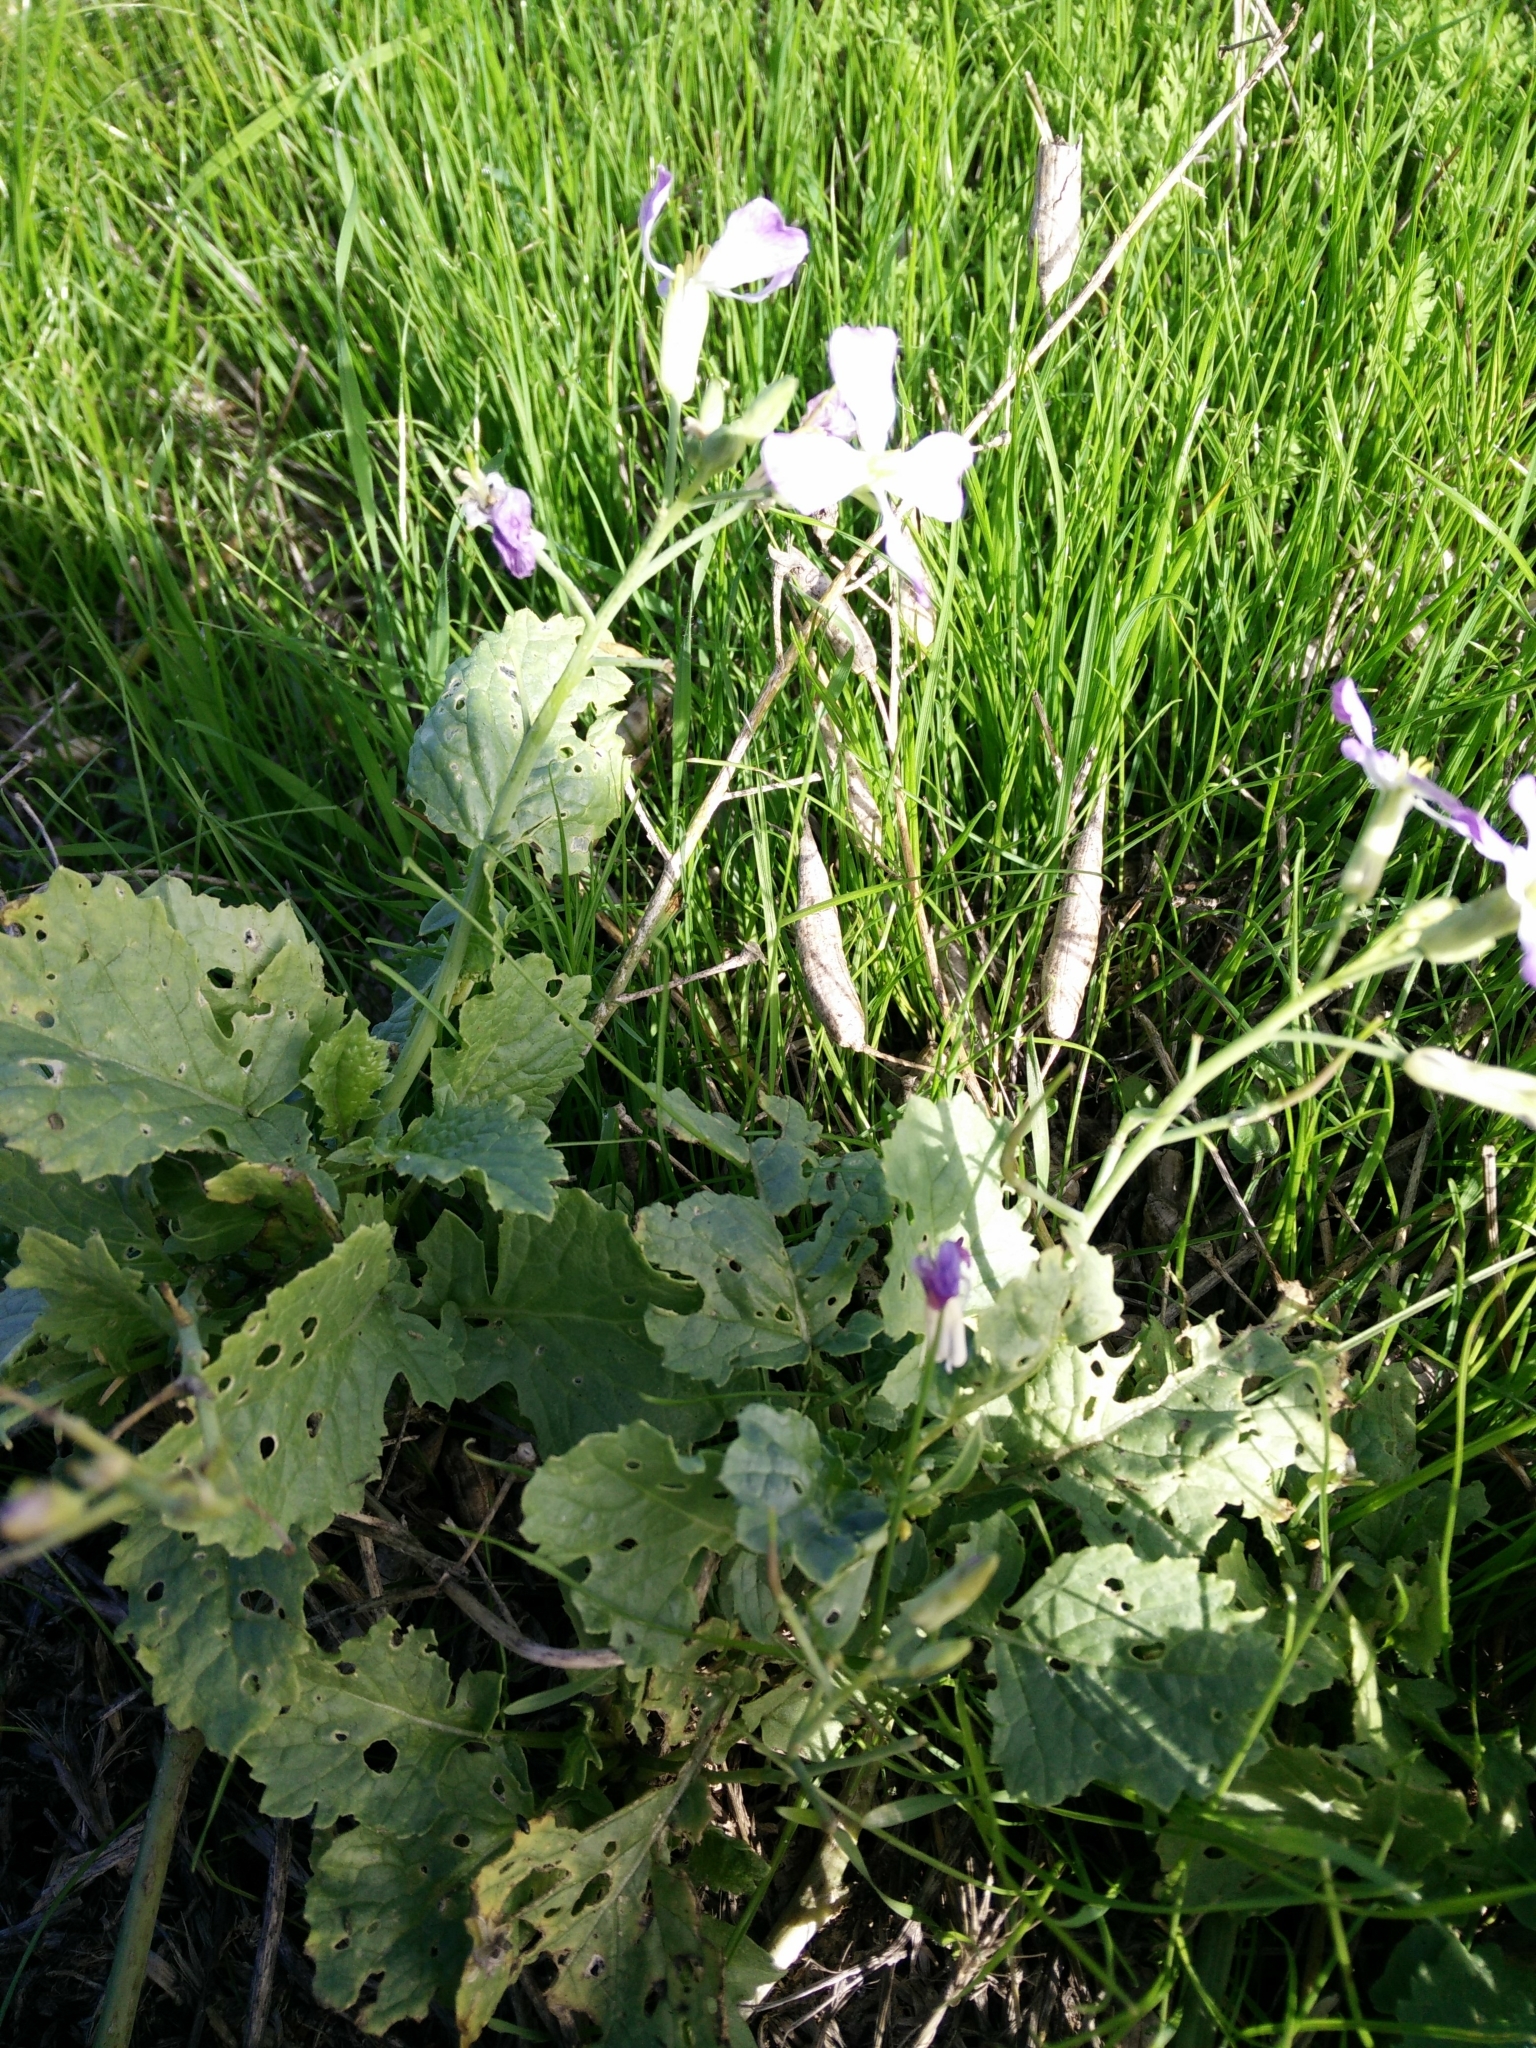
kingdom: Plantae
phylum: Tracheophyta
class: Magnoliopsida
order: Brassicales
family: Brassicaceae
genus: Raphanus
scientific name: Raphanus sativus
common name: Cultivated radish
